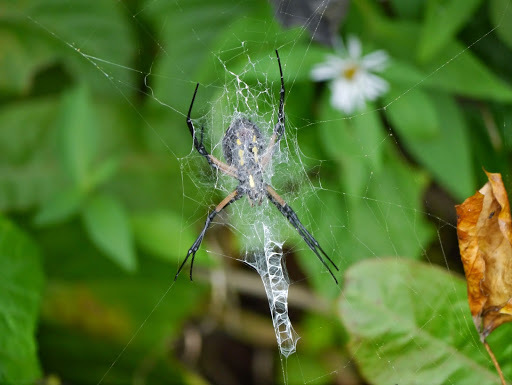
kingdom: Animalia
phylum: Arthropoda
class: Arachnida
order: Araneae
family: Araneidae
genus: Argiope
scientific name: Argiope aurantia
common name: Orb weavers
